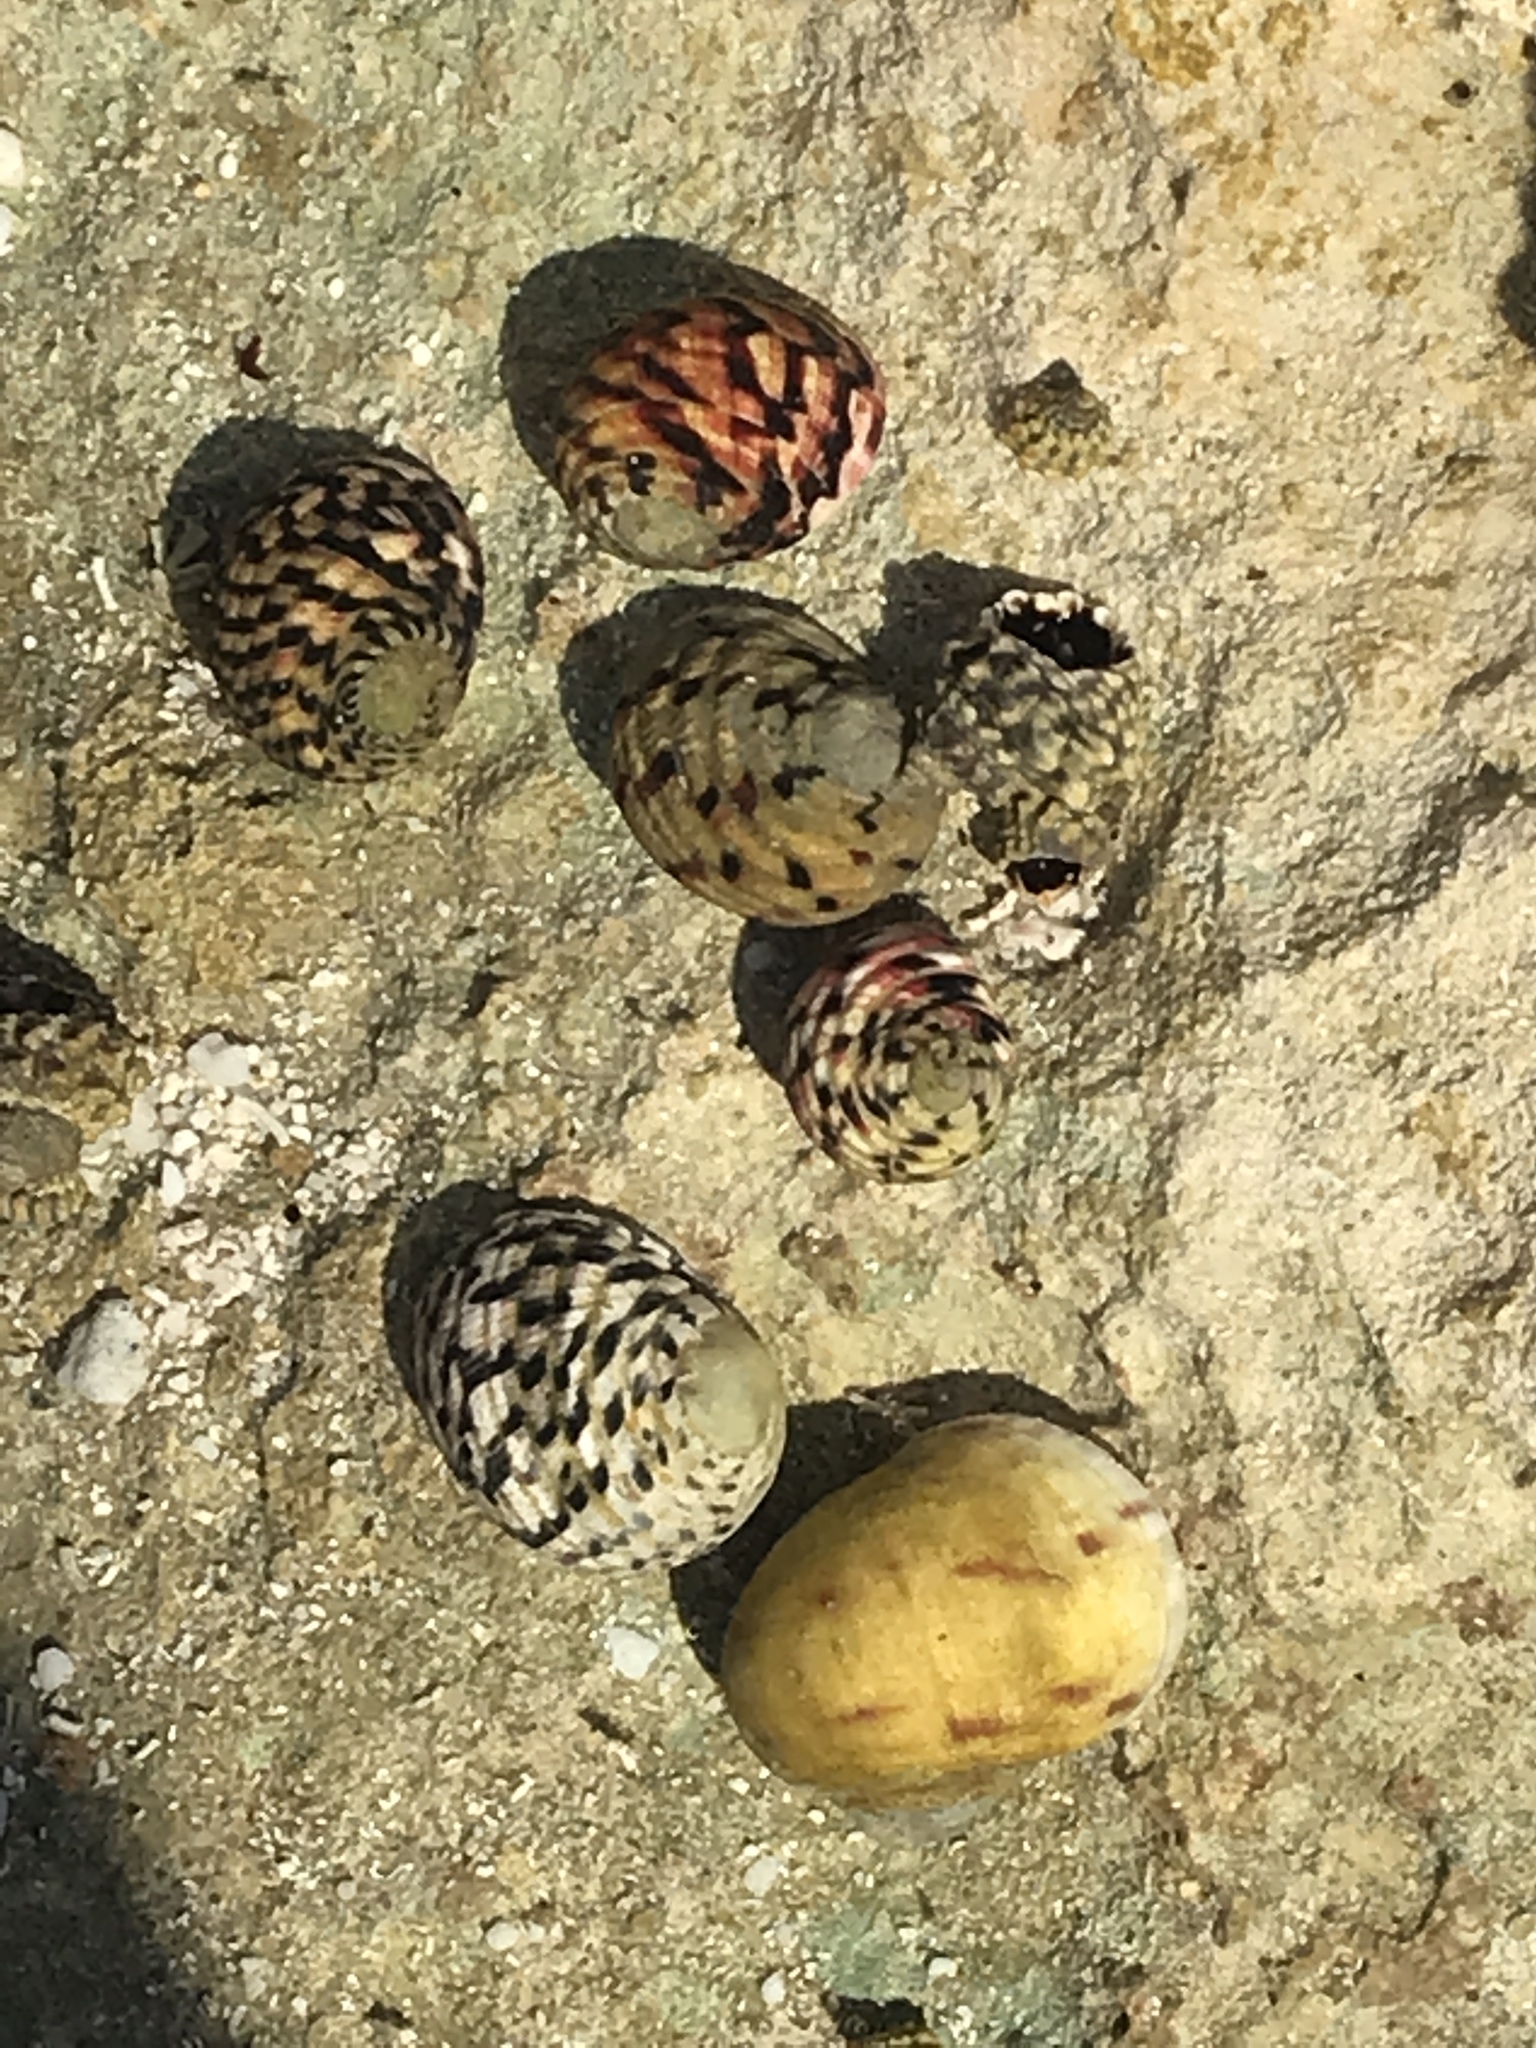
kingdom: Animalia
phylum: Mollusca
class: Gastropoda
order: Cycloneritida
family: Neritidae
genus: Nerita
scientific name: Nerita versicolor
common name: Four-tooth nerite
